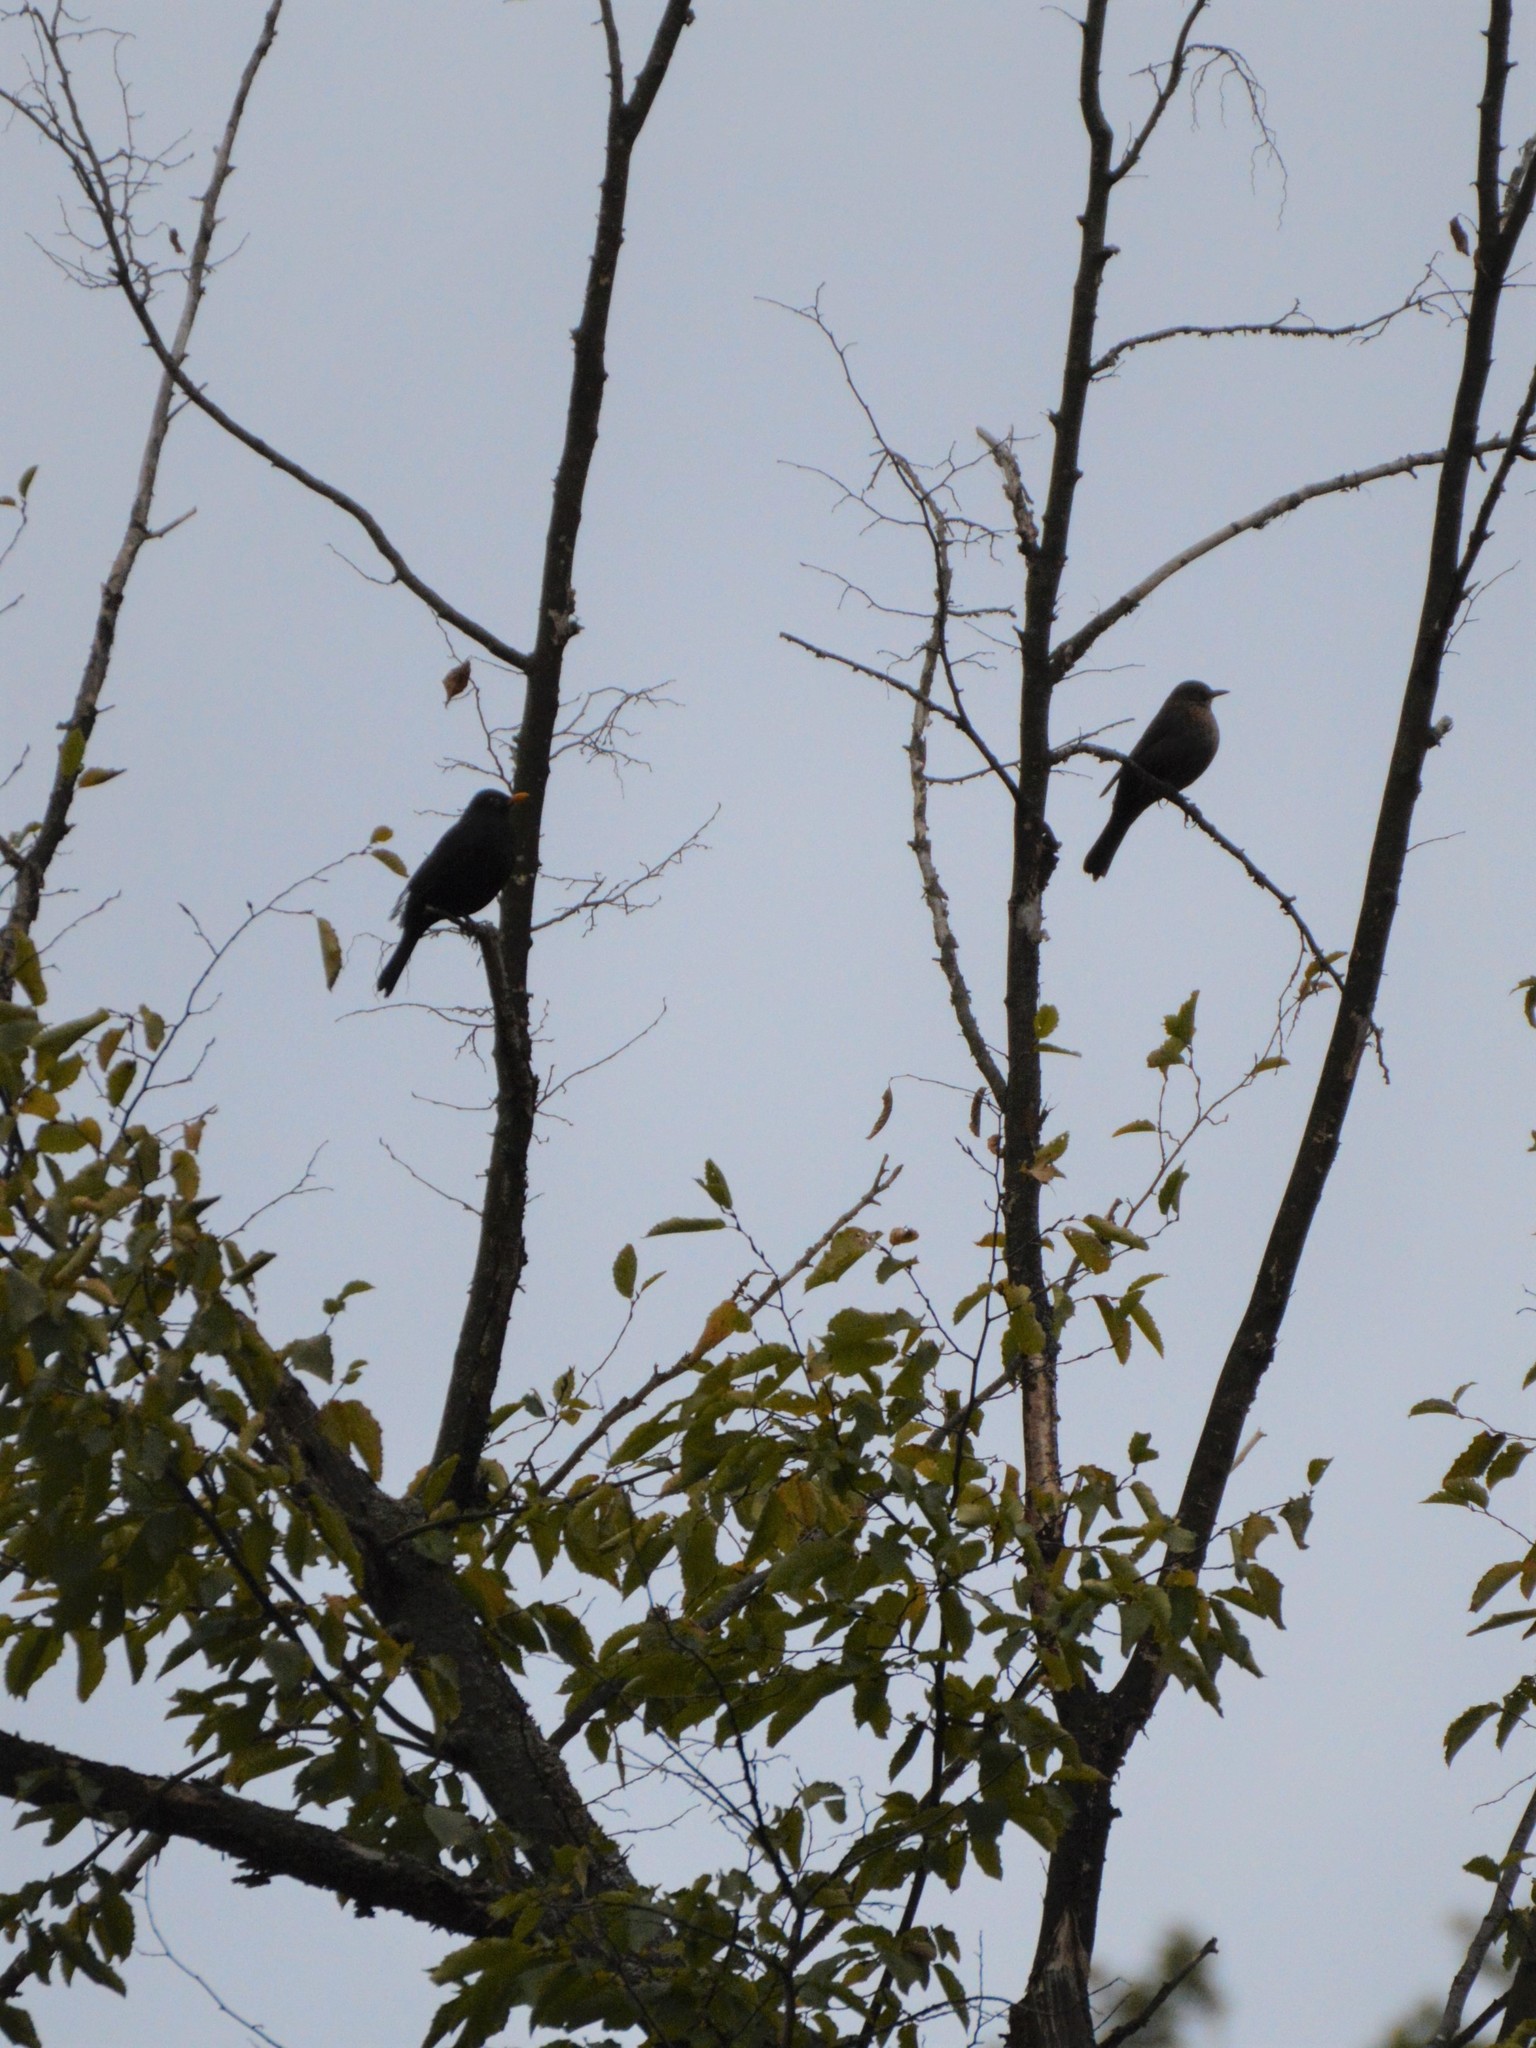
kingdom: Animalia
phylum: Chordata
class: Aves
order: Passeriformes
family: Turdidae
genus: Turdus
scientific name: Turdus merula
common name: Common blackbird
